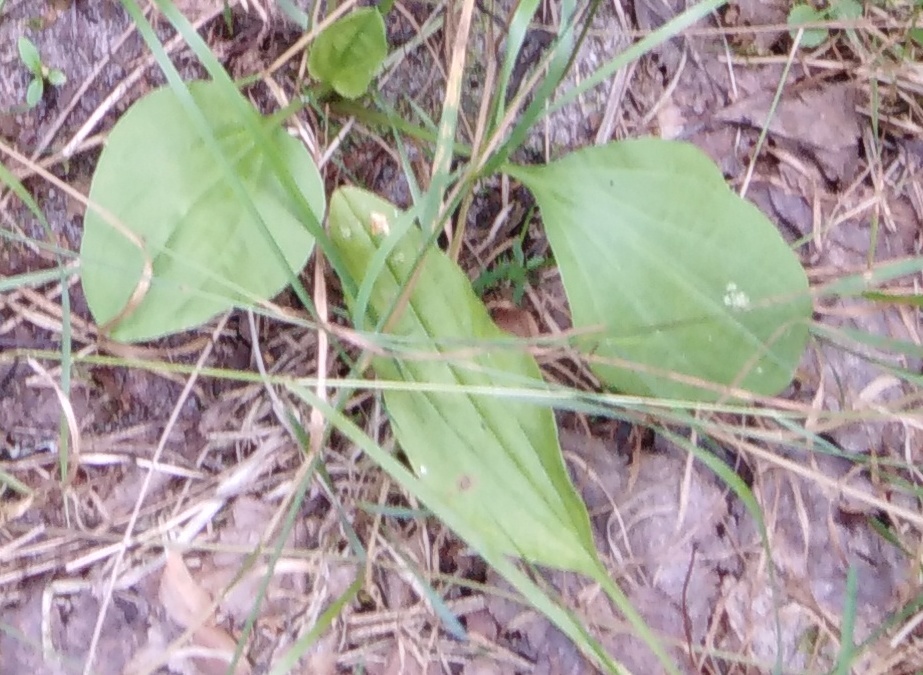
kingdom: Plantae
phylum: Tracheophyta
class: Magnoliopsida
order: Lamiales
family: Plantaginaceae
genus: Plantago
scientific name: Plantago major
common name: Common plantain
